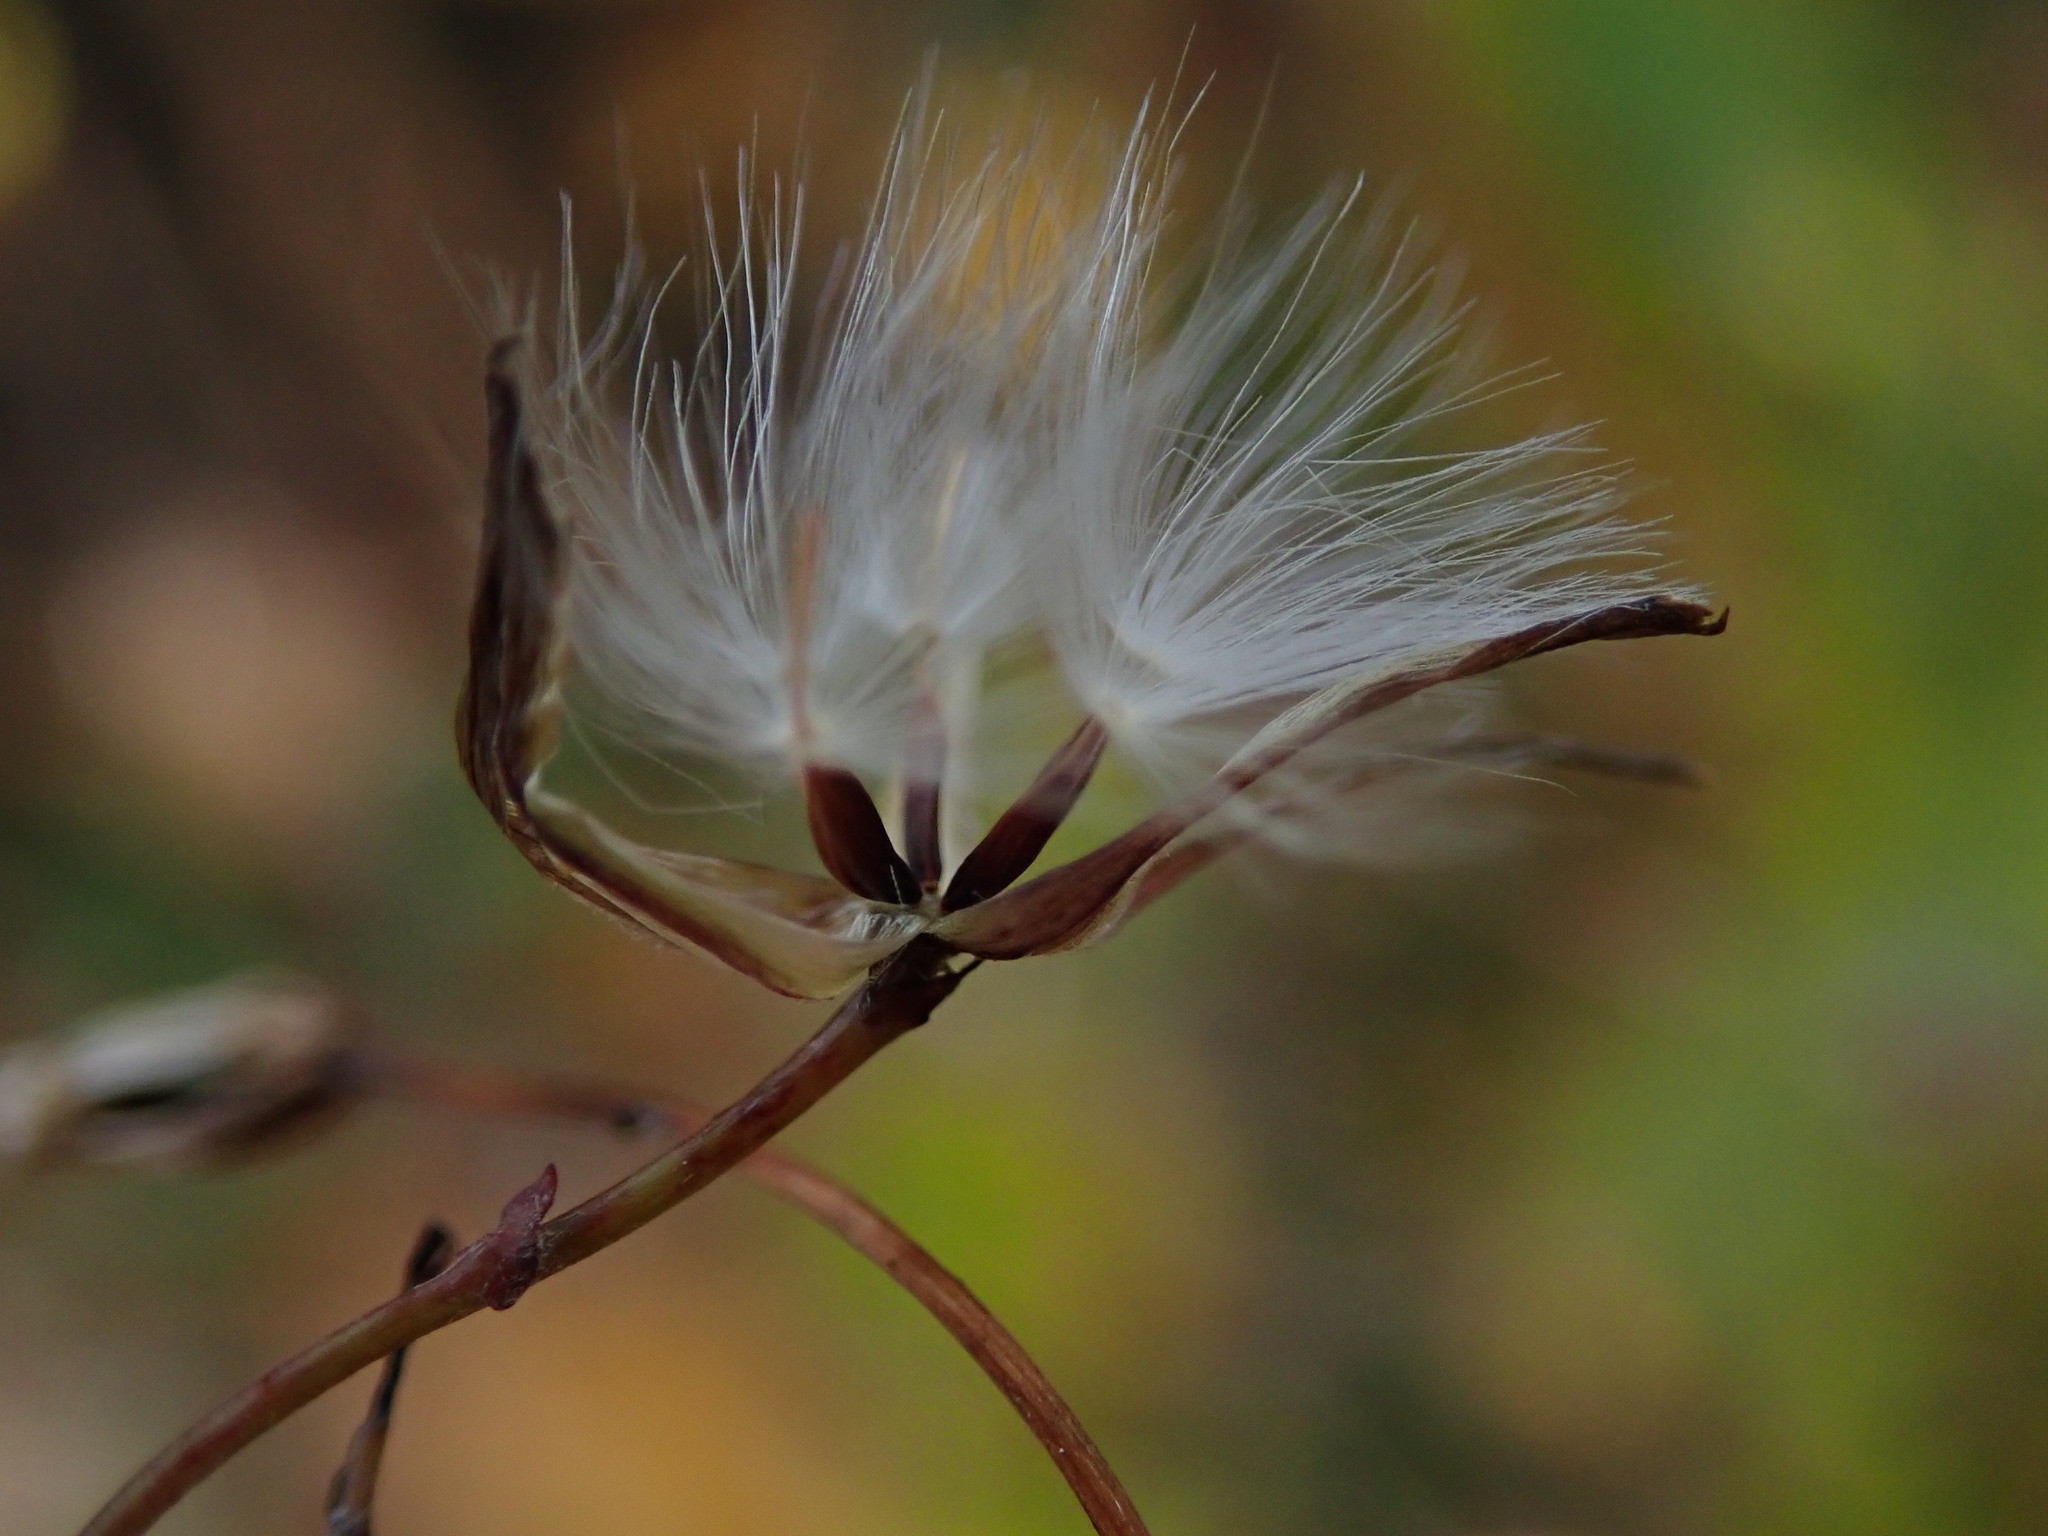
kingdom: Plantae
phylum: Tracheophyta
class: Magnoliopsida
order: Asterales
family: Asteraceae
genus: Mycelis
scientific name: Mycelis muralis
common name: Wall lettuce
